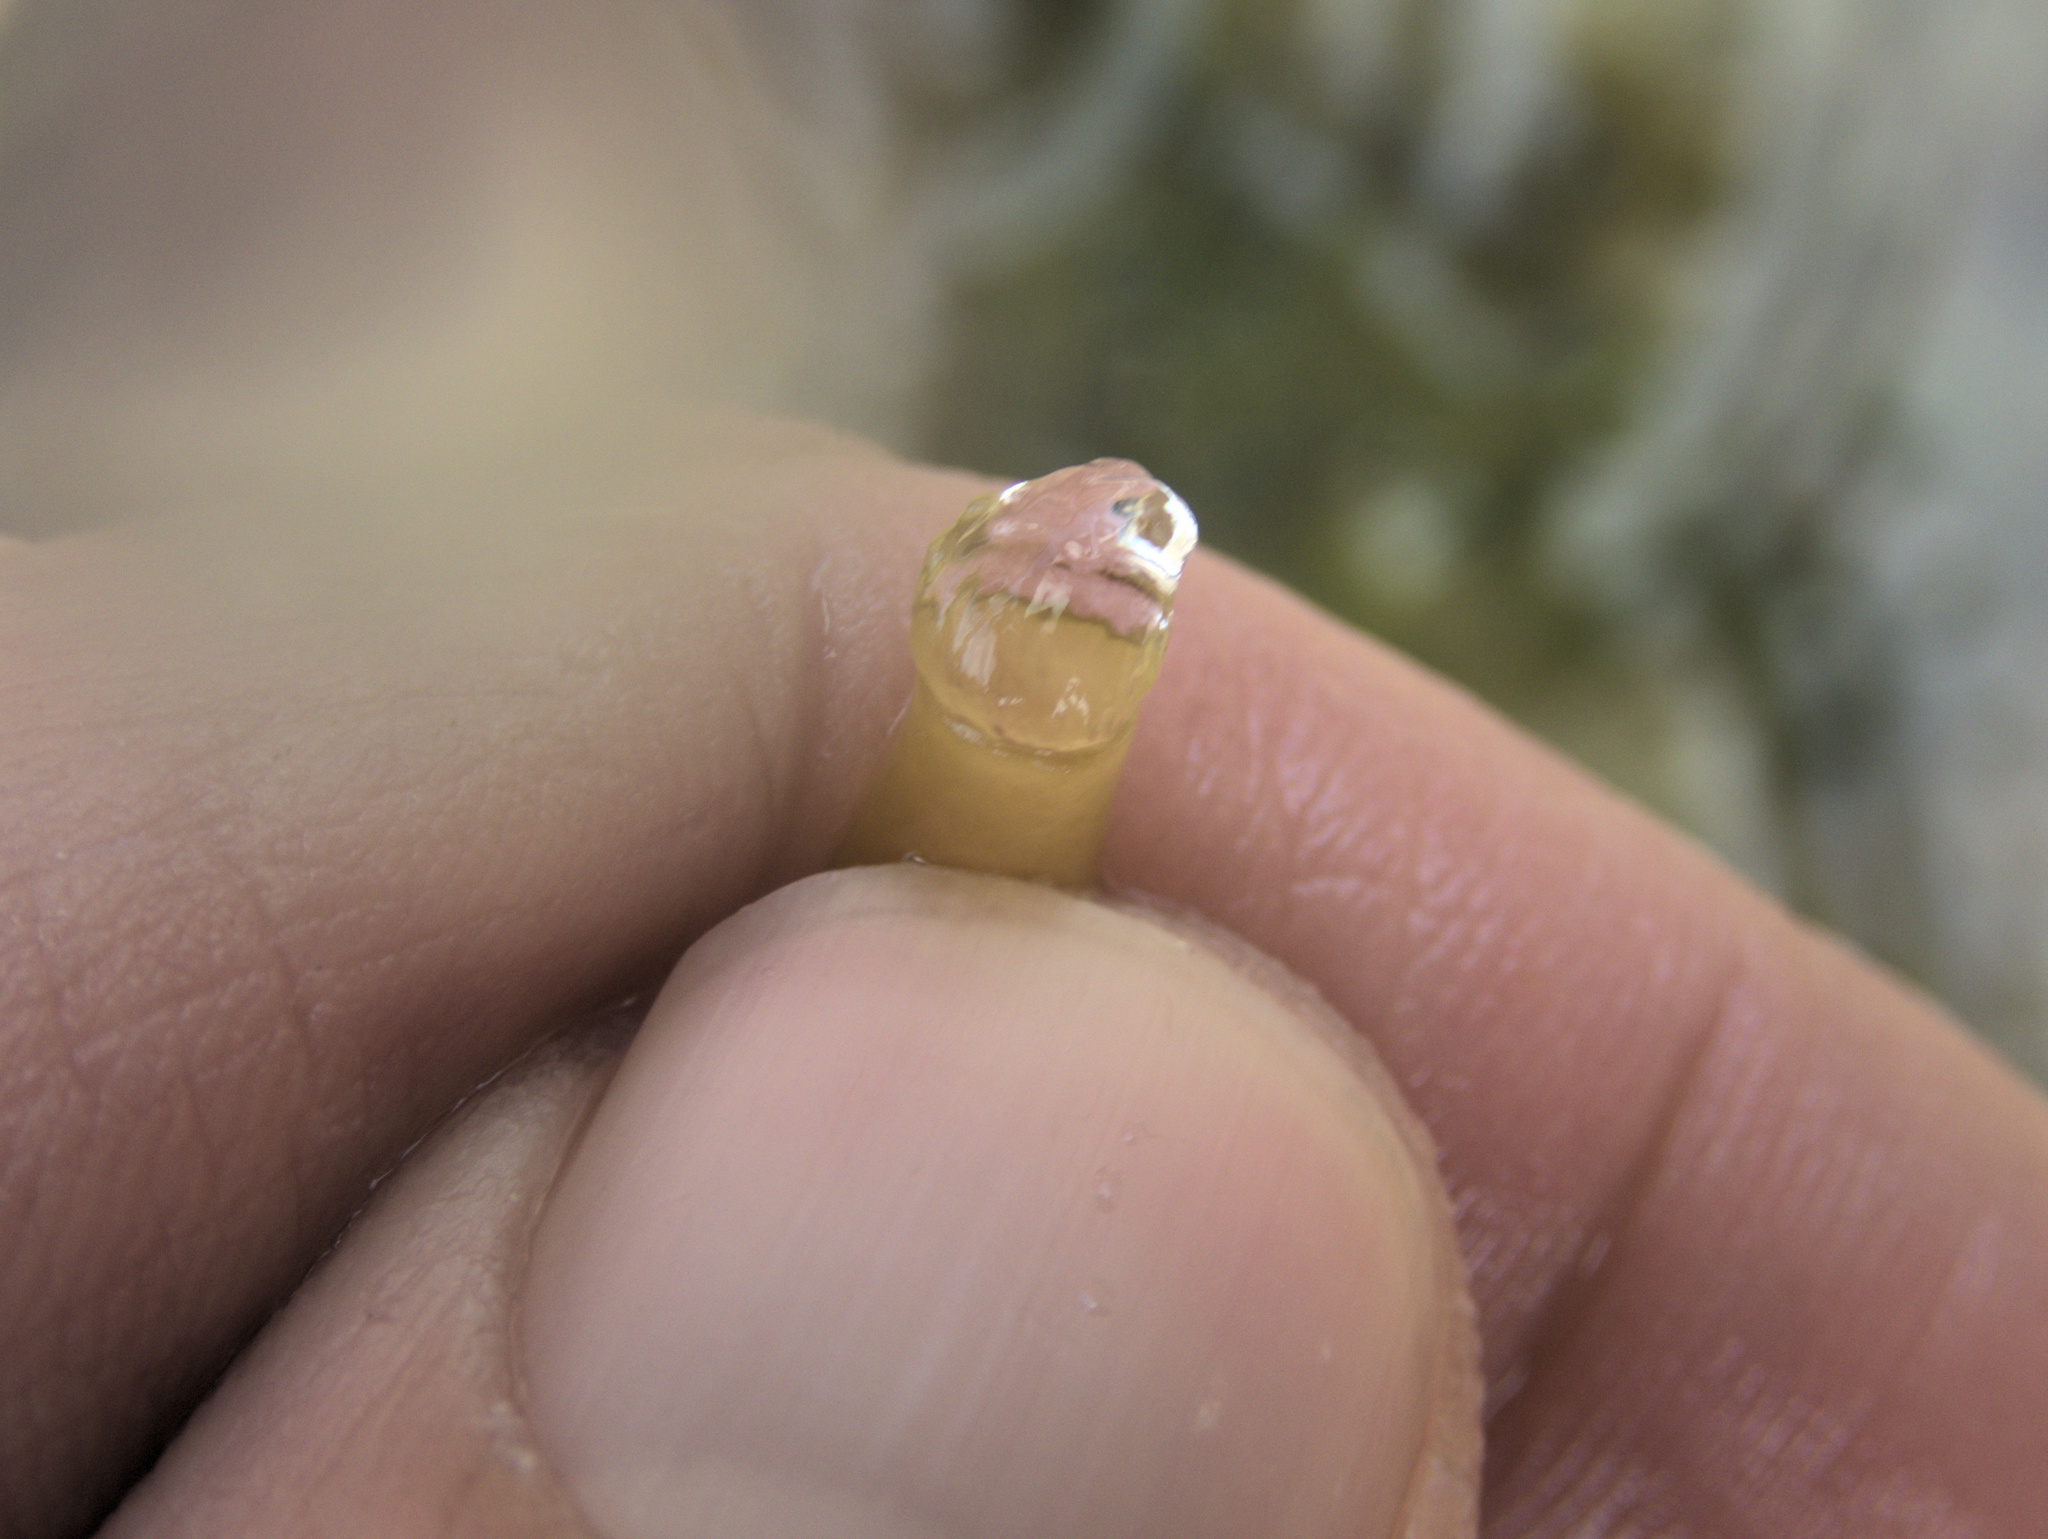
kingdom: Plantae
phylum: Rhodophyta
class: Florideophyceae
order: Halymeniales
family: Halymeniaceae
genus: Glaphyrosiphon
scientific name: Glaphyrosiphon lindaueri
